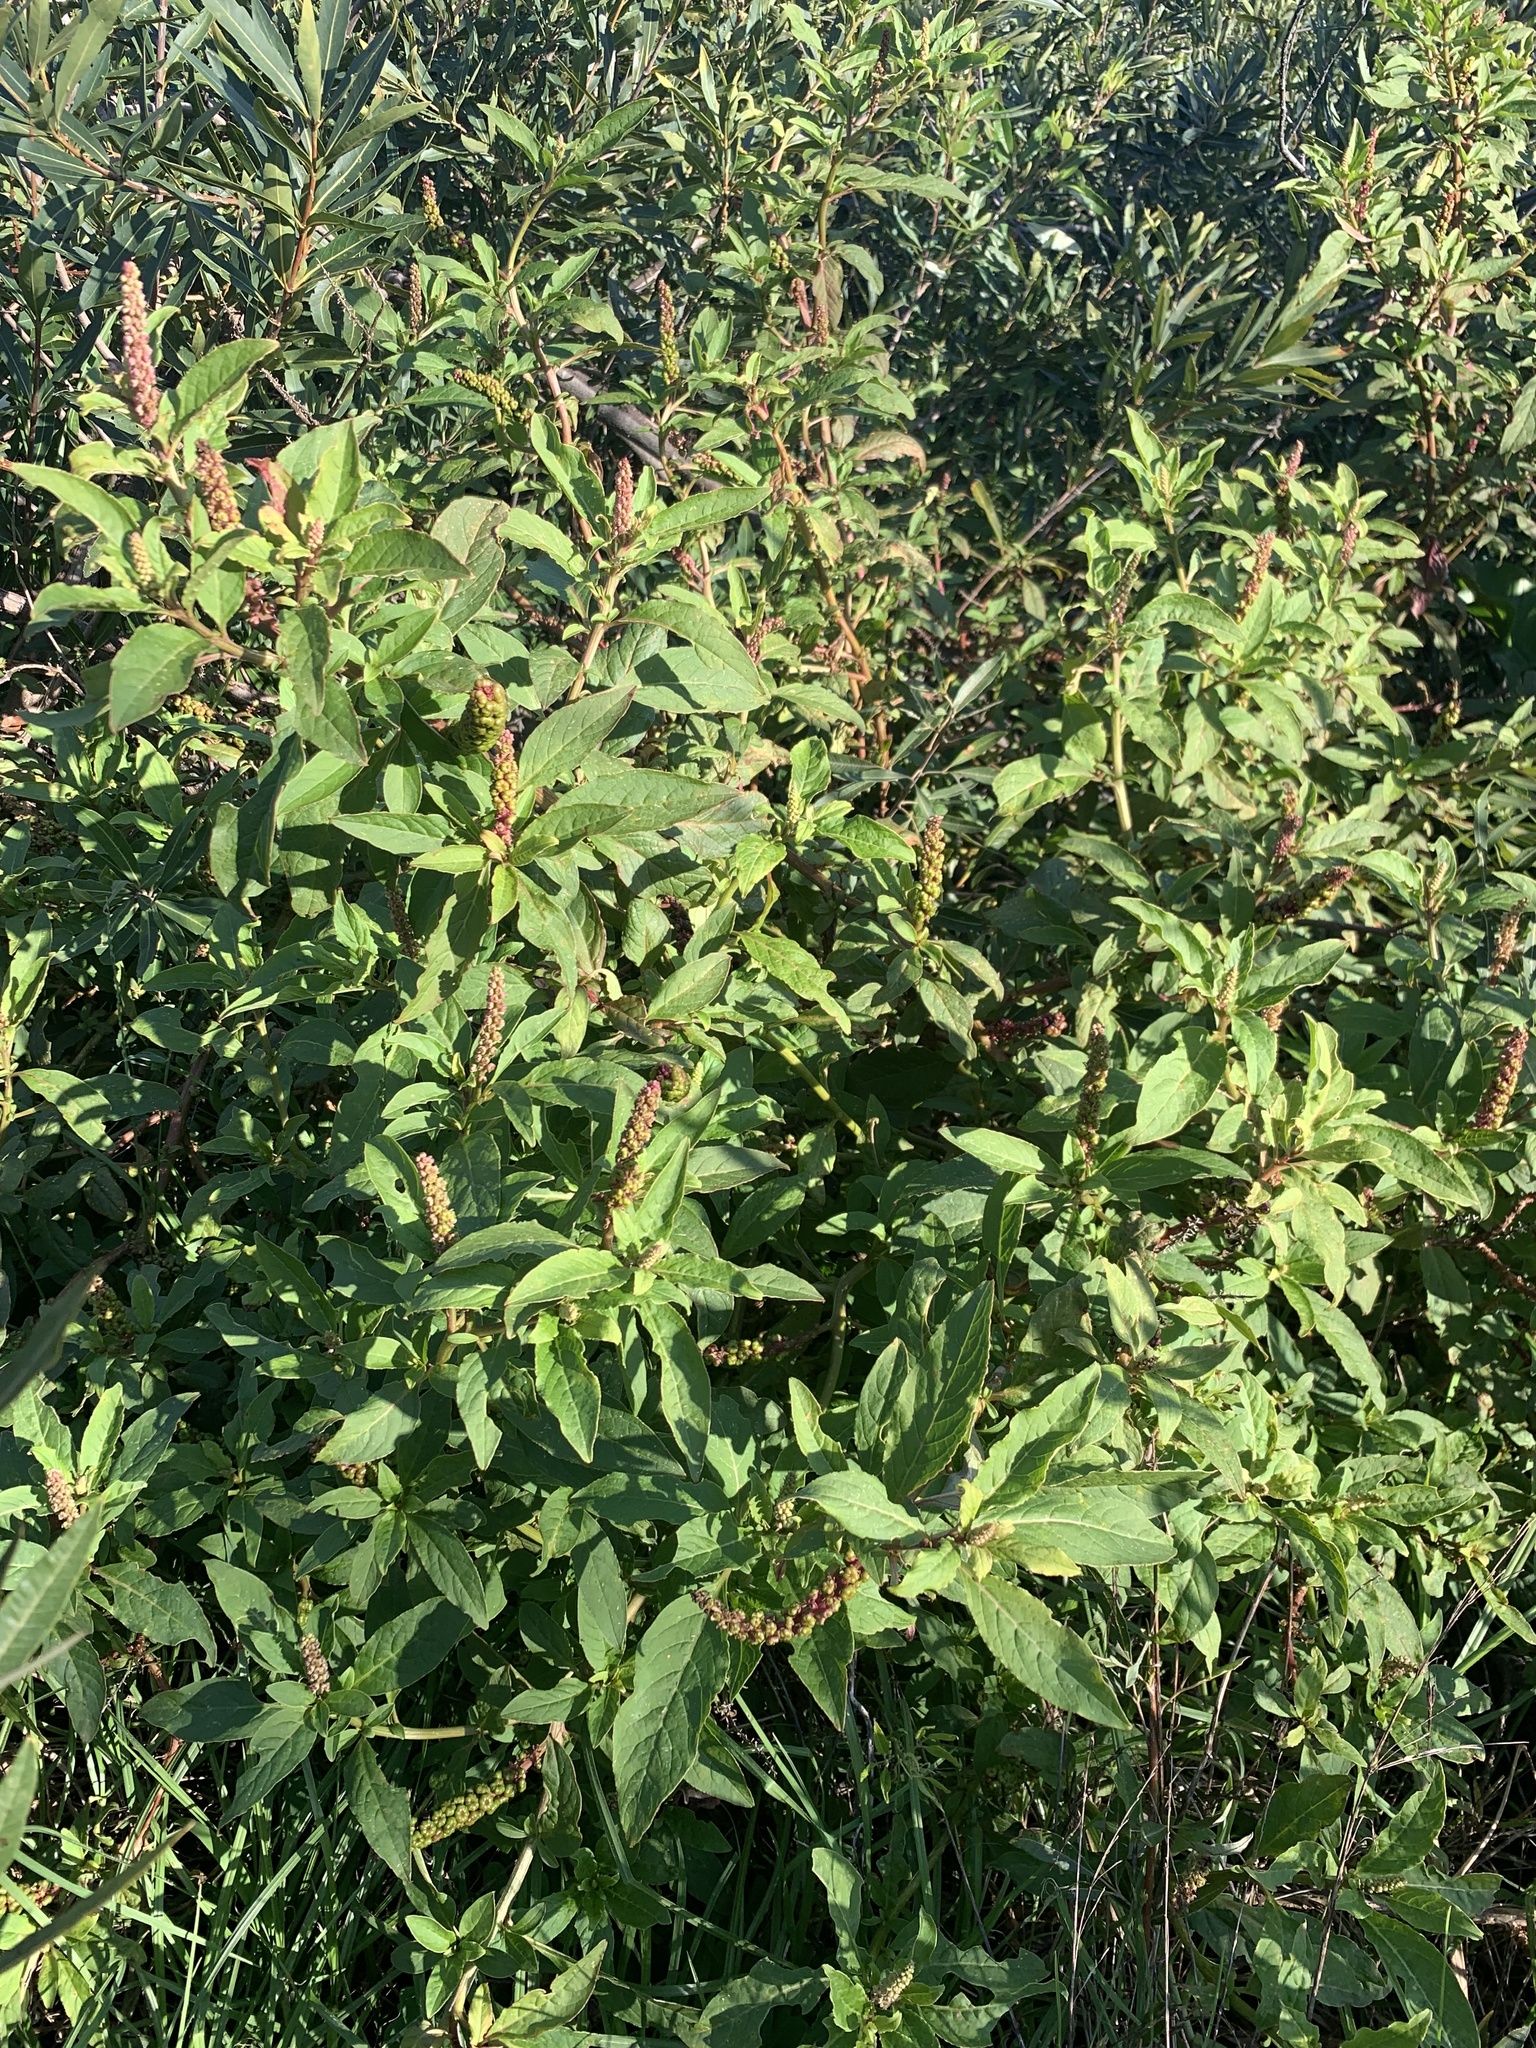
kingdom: Plantae
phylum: Tracheophyta
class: Magnoliopsida
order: Caryophyllales
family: Phytolaccaceae
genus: Phytolacca
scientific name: Phytolacca icosandra
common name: Button pokeweed
